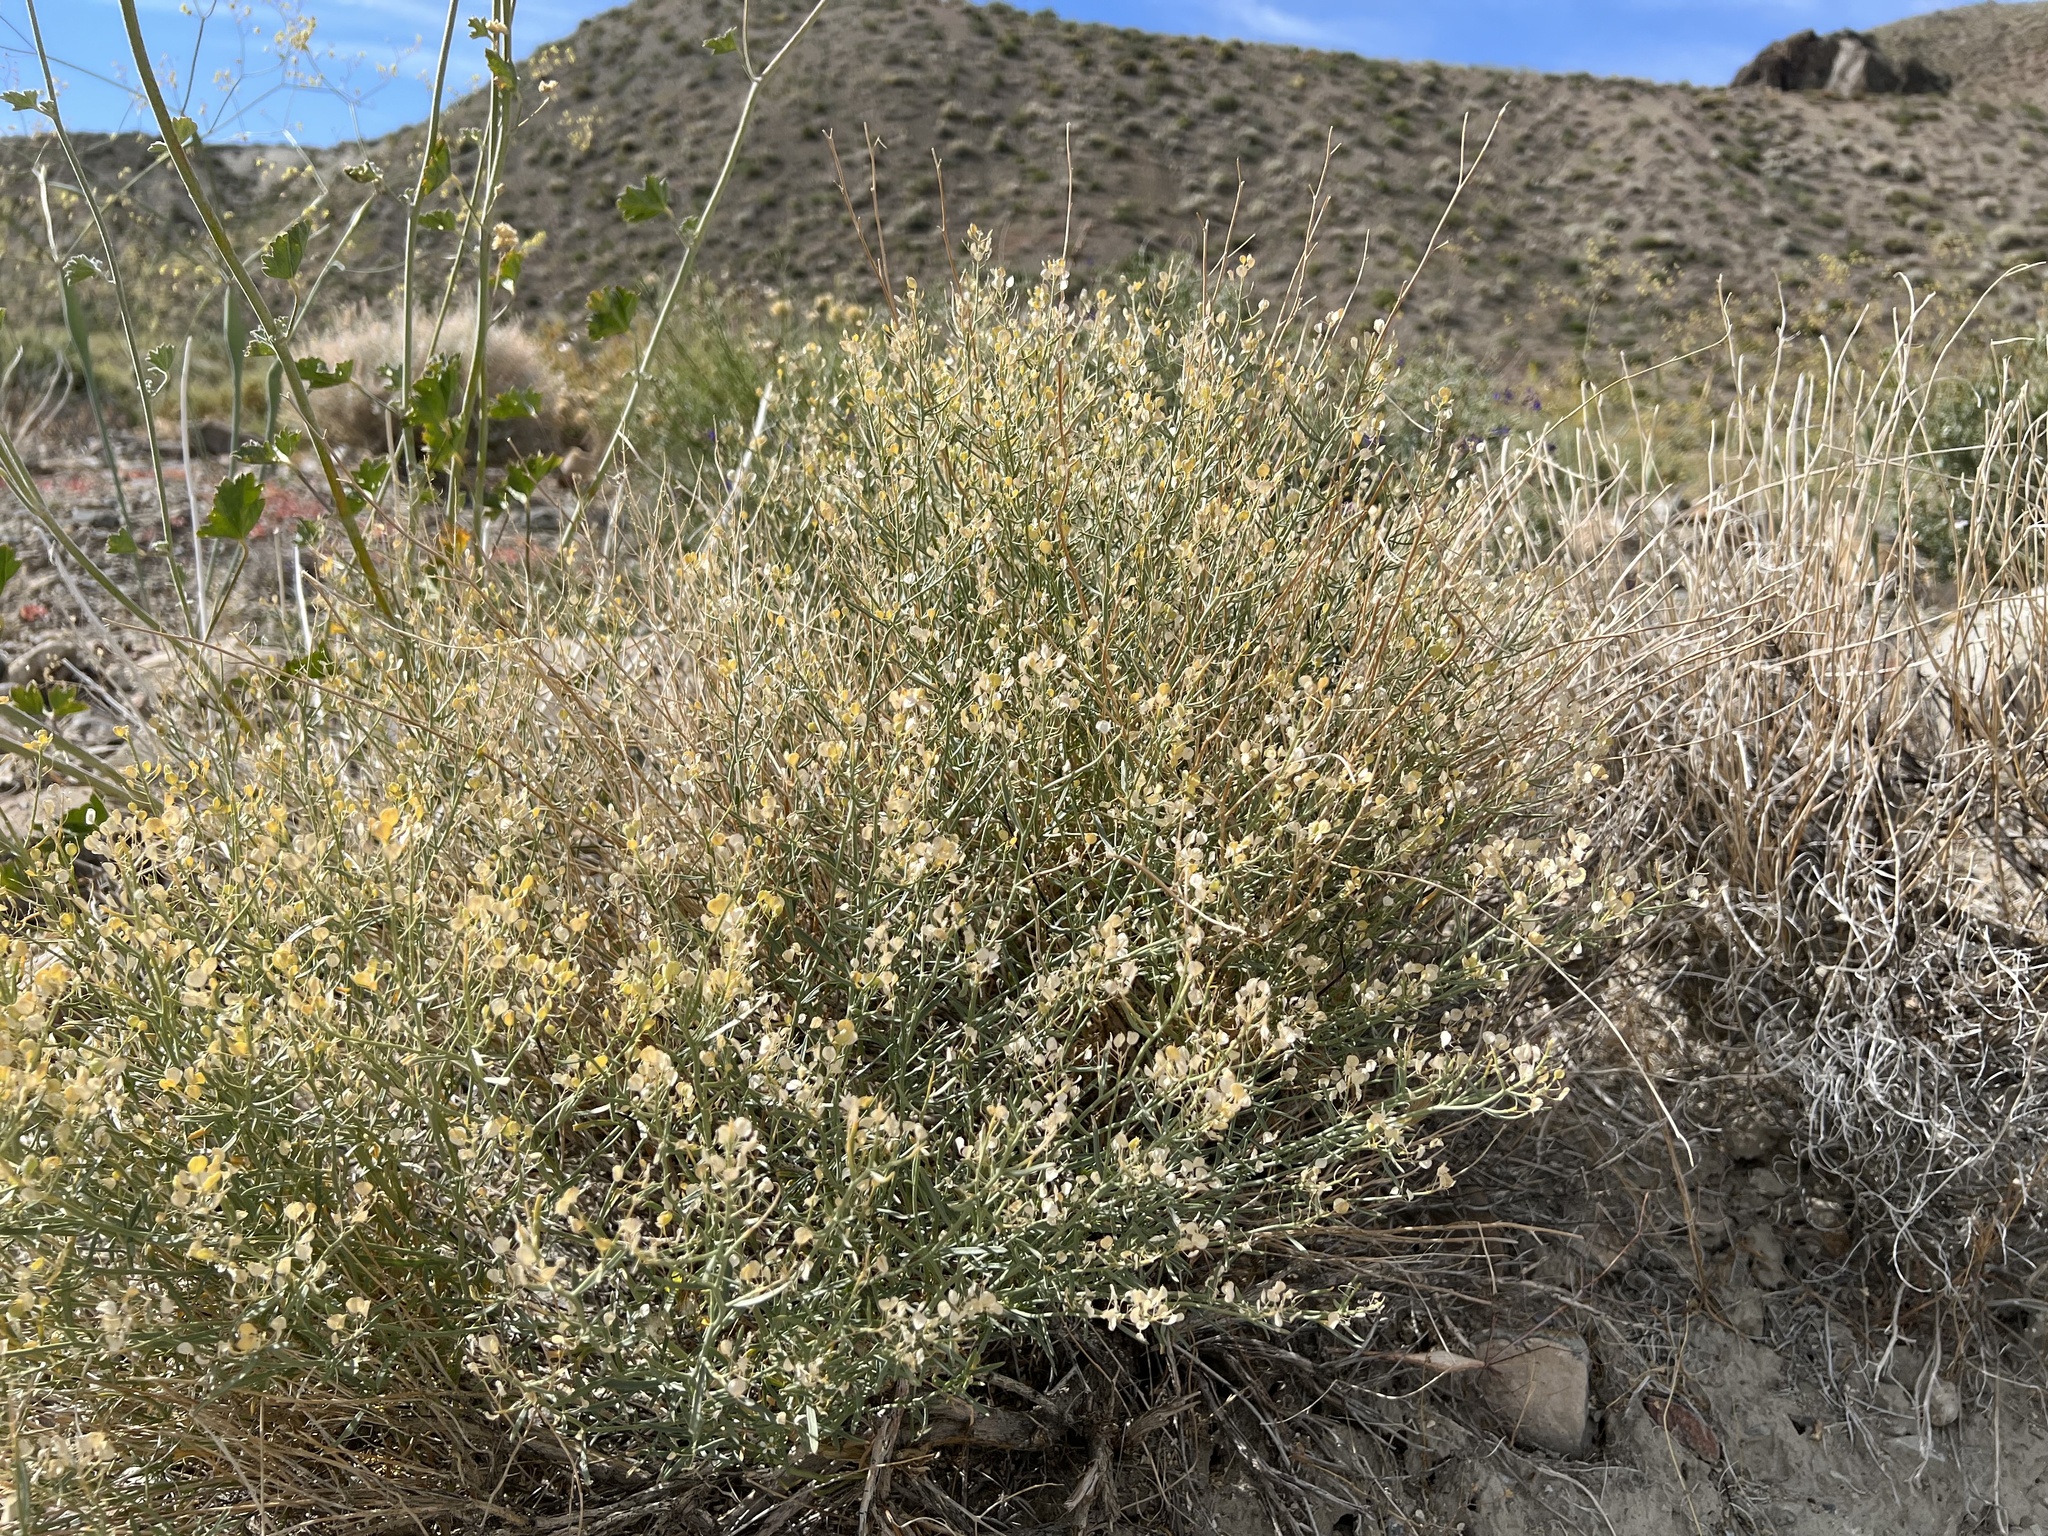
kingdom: Plantae
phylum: Tracheophyta
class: Magnoliopsida
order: Brassicales
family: Brassicaceae
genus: Lepidium
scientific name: Lepidium fremontii
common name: Fremont's pepperwort
